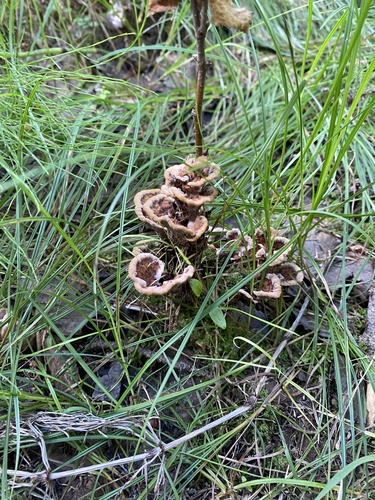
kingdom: Fungi
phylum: Basidiomycota
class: Agaricomycetes
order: Thelephorales
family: Thelephoraceae
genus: Thelephora
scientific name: Thelephora terrestris
